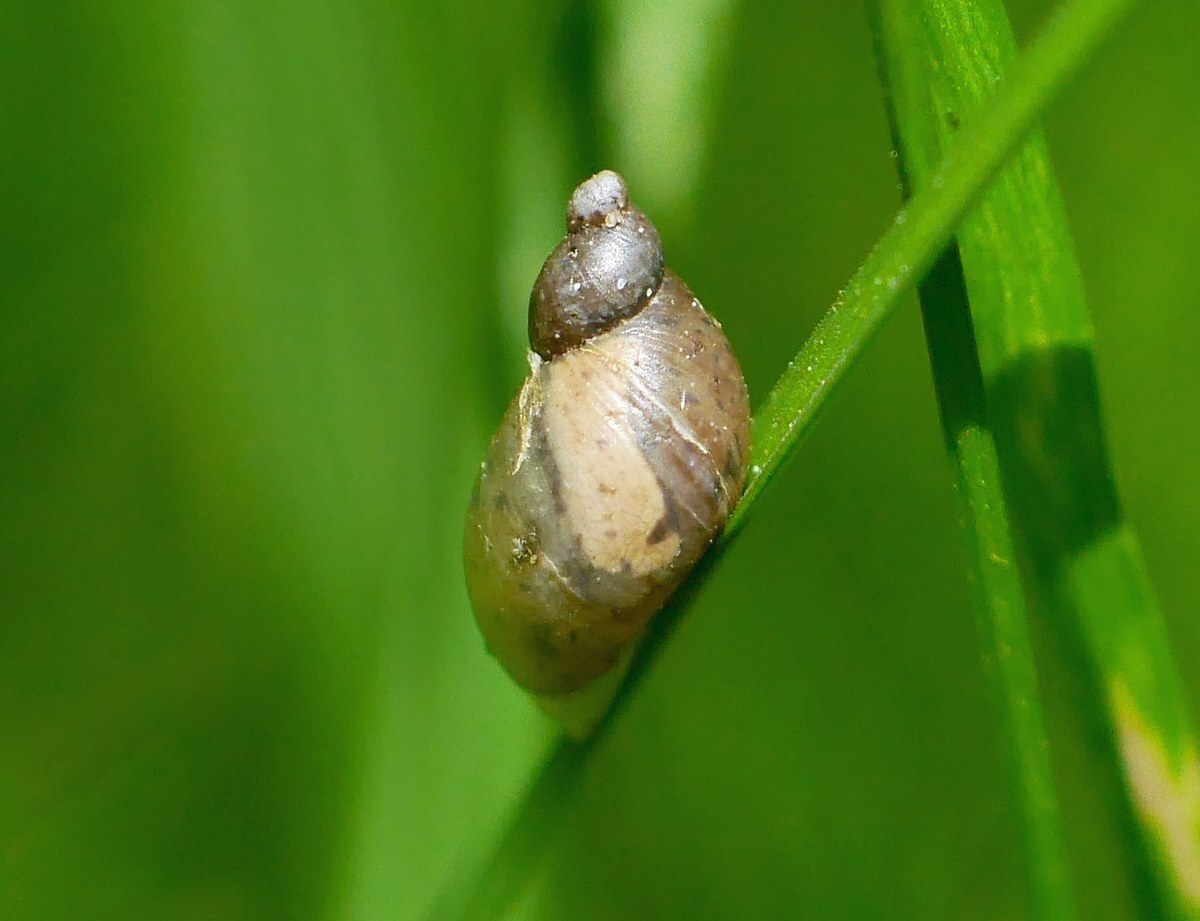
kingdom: Animalia
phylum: Mollusca
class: Gastropoda
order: Stylommatophora
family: Succineidae
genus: Succinella
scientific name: Succinella oblonga
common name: Small amber snail
